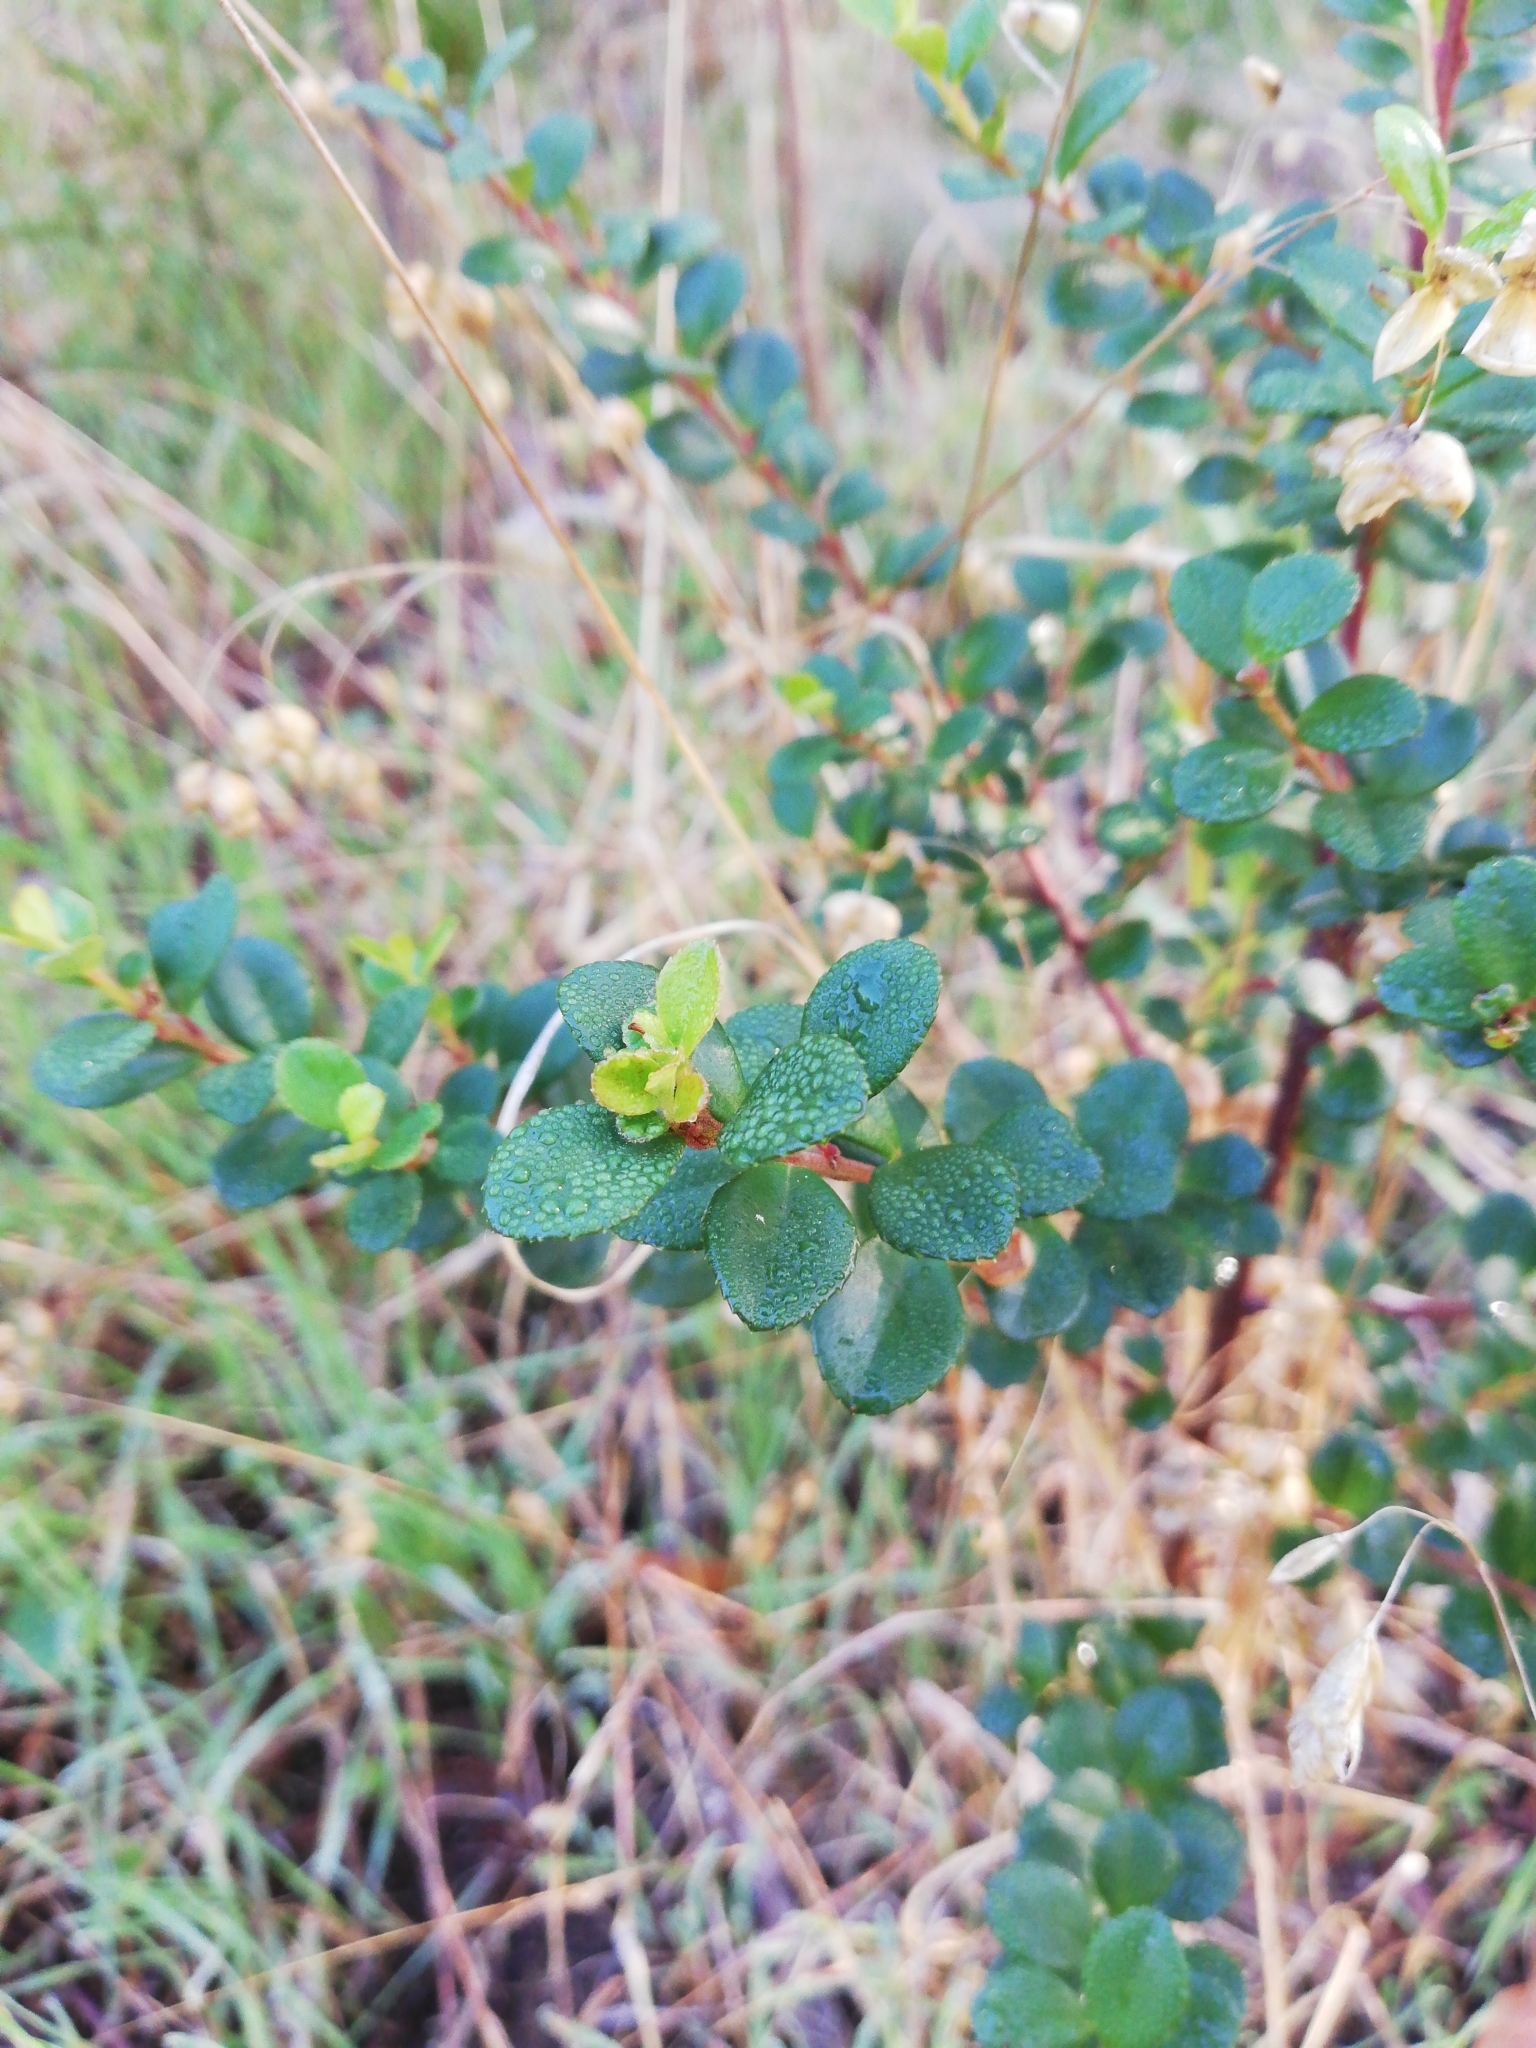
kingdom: Plantae
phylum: Tracheophyta
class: Magnoliopsida
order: Ericales
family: Primulaceae
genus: Myrsine
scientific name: Myrsine africana
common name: African-boxwood
